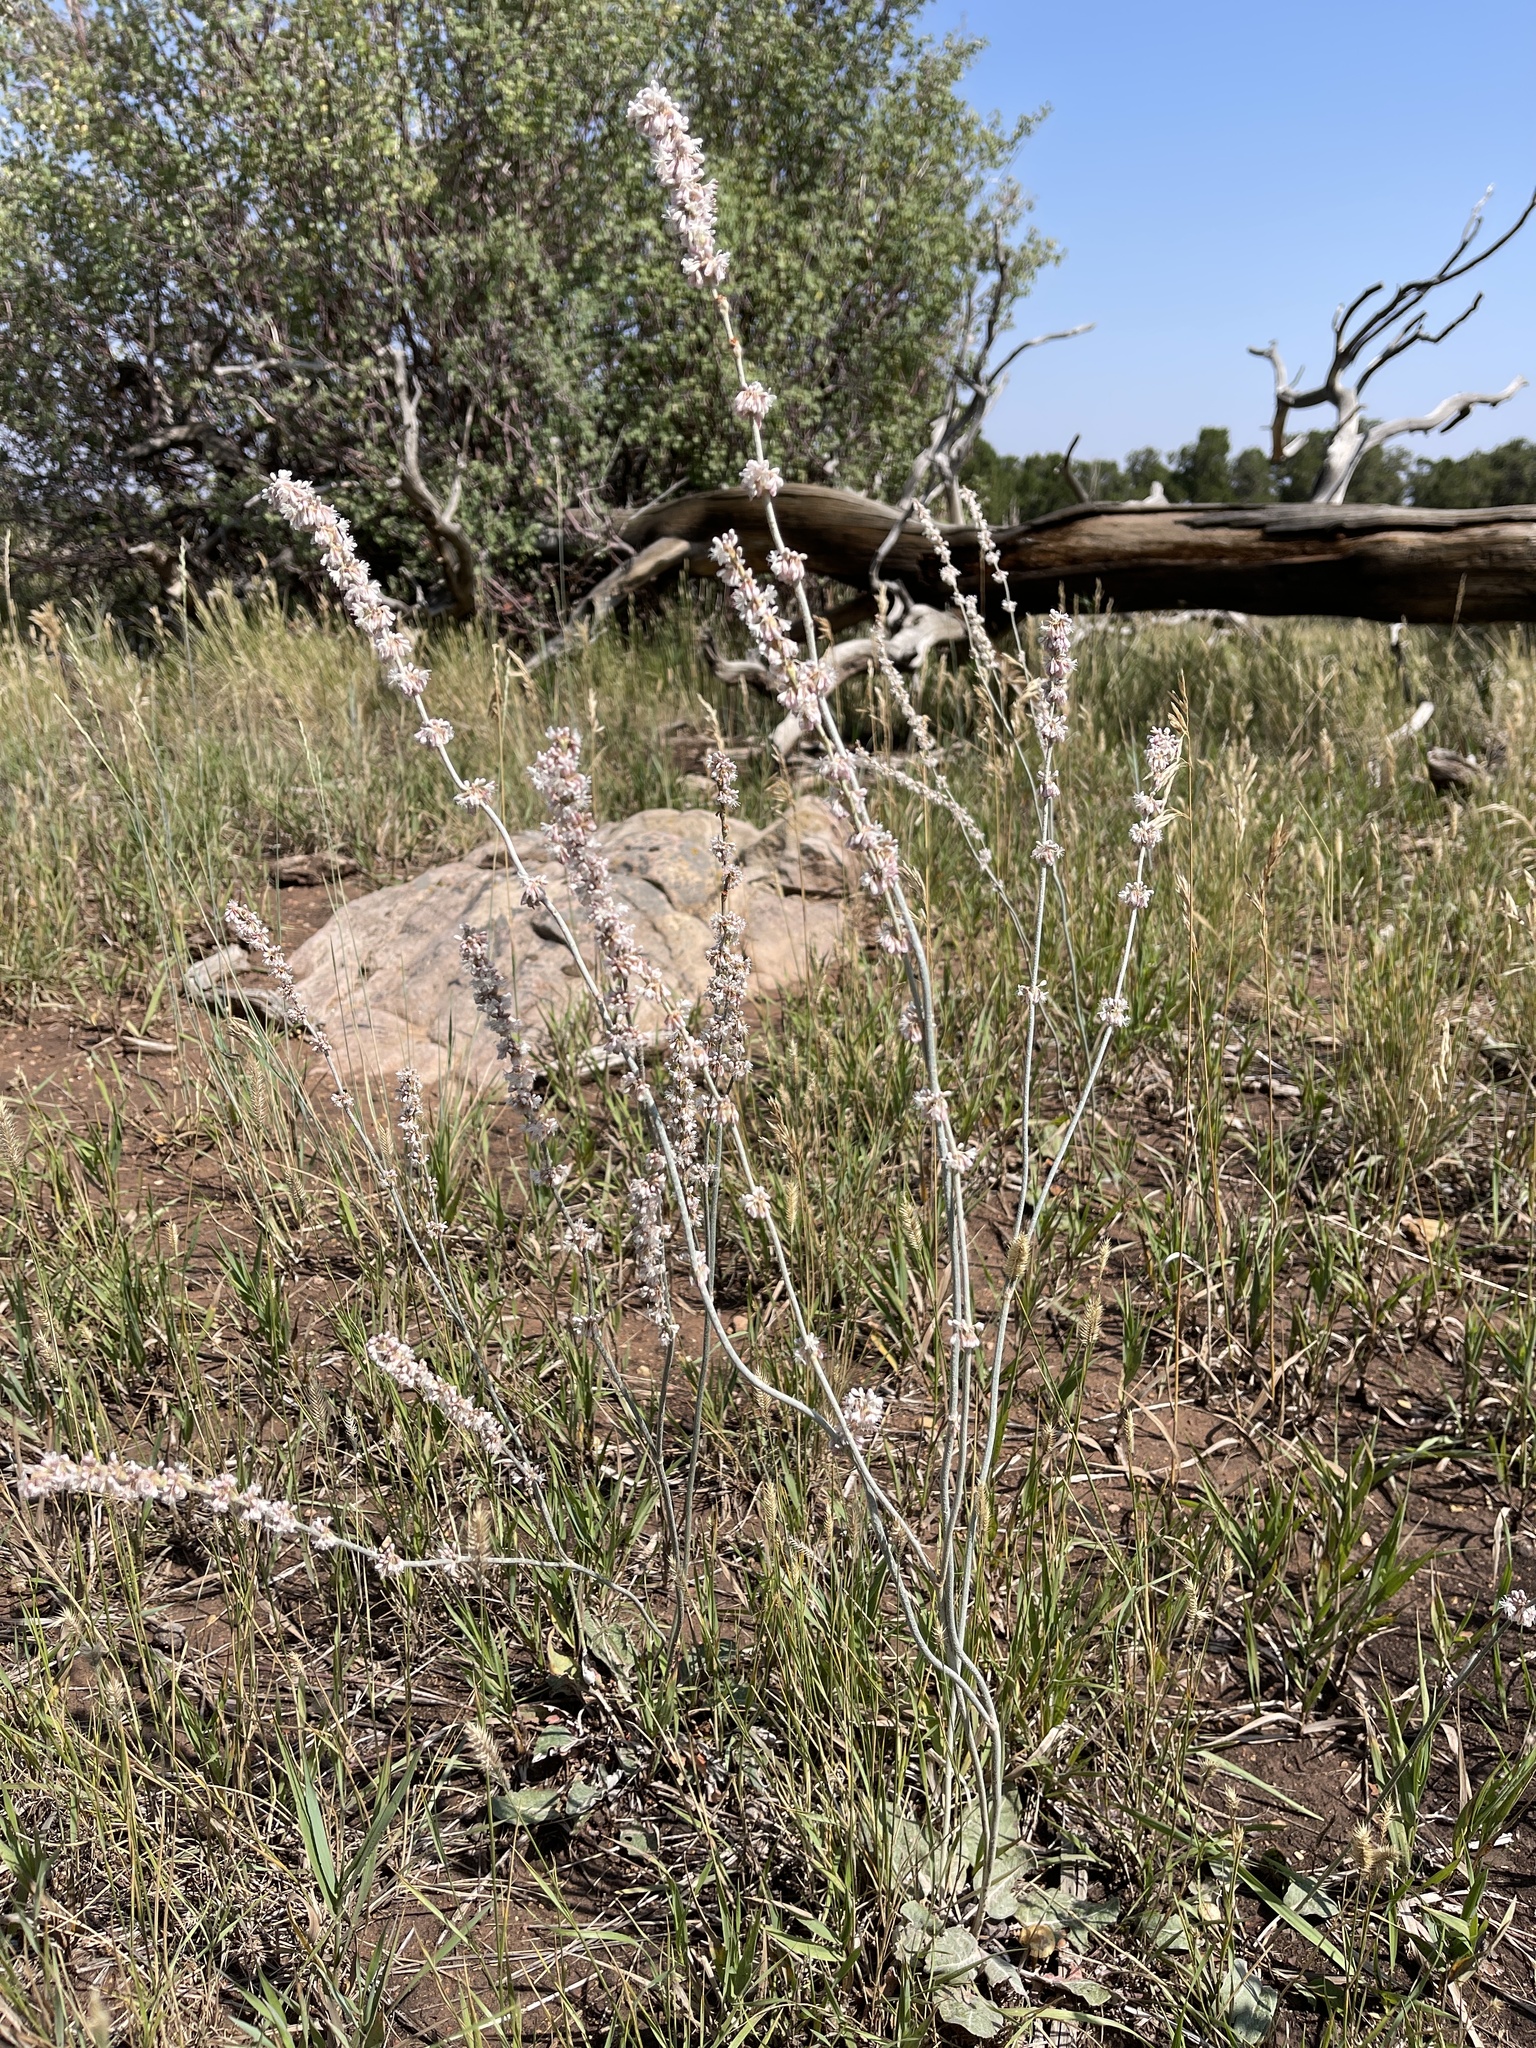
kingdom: Plantae
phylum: Tracheophyta
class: Magnoliopsida
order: Caryophyllales
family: Polygonaceae
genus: Eriogonum
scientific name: Eriogonum racemosum
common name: Redroot wild buckwheat
